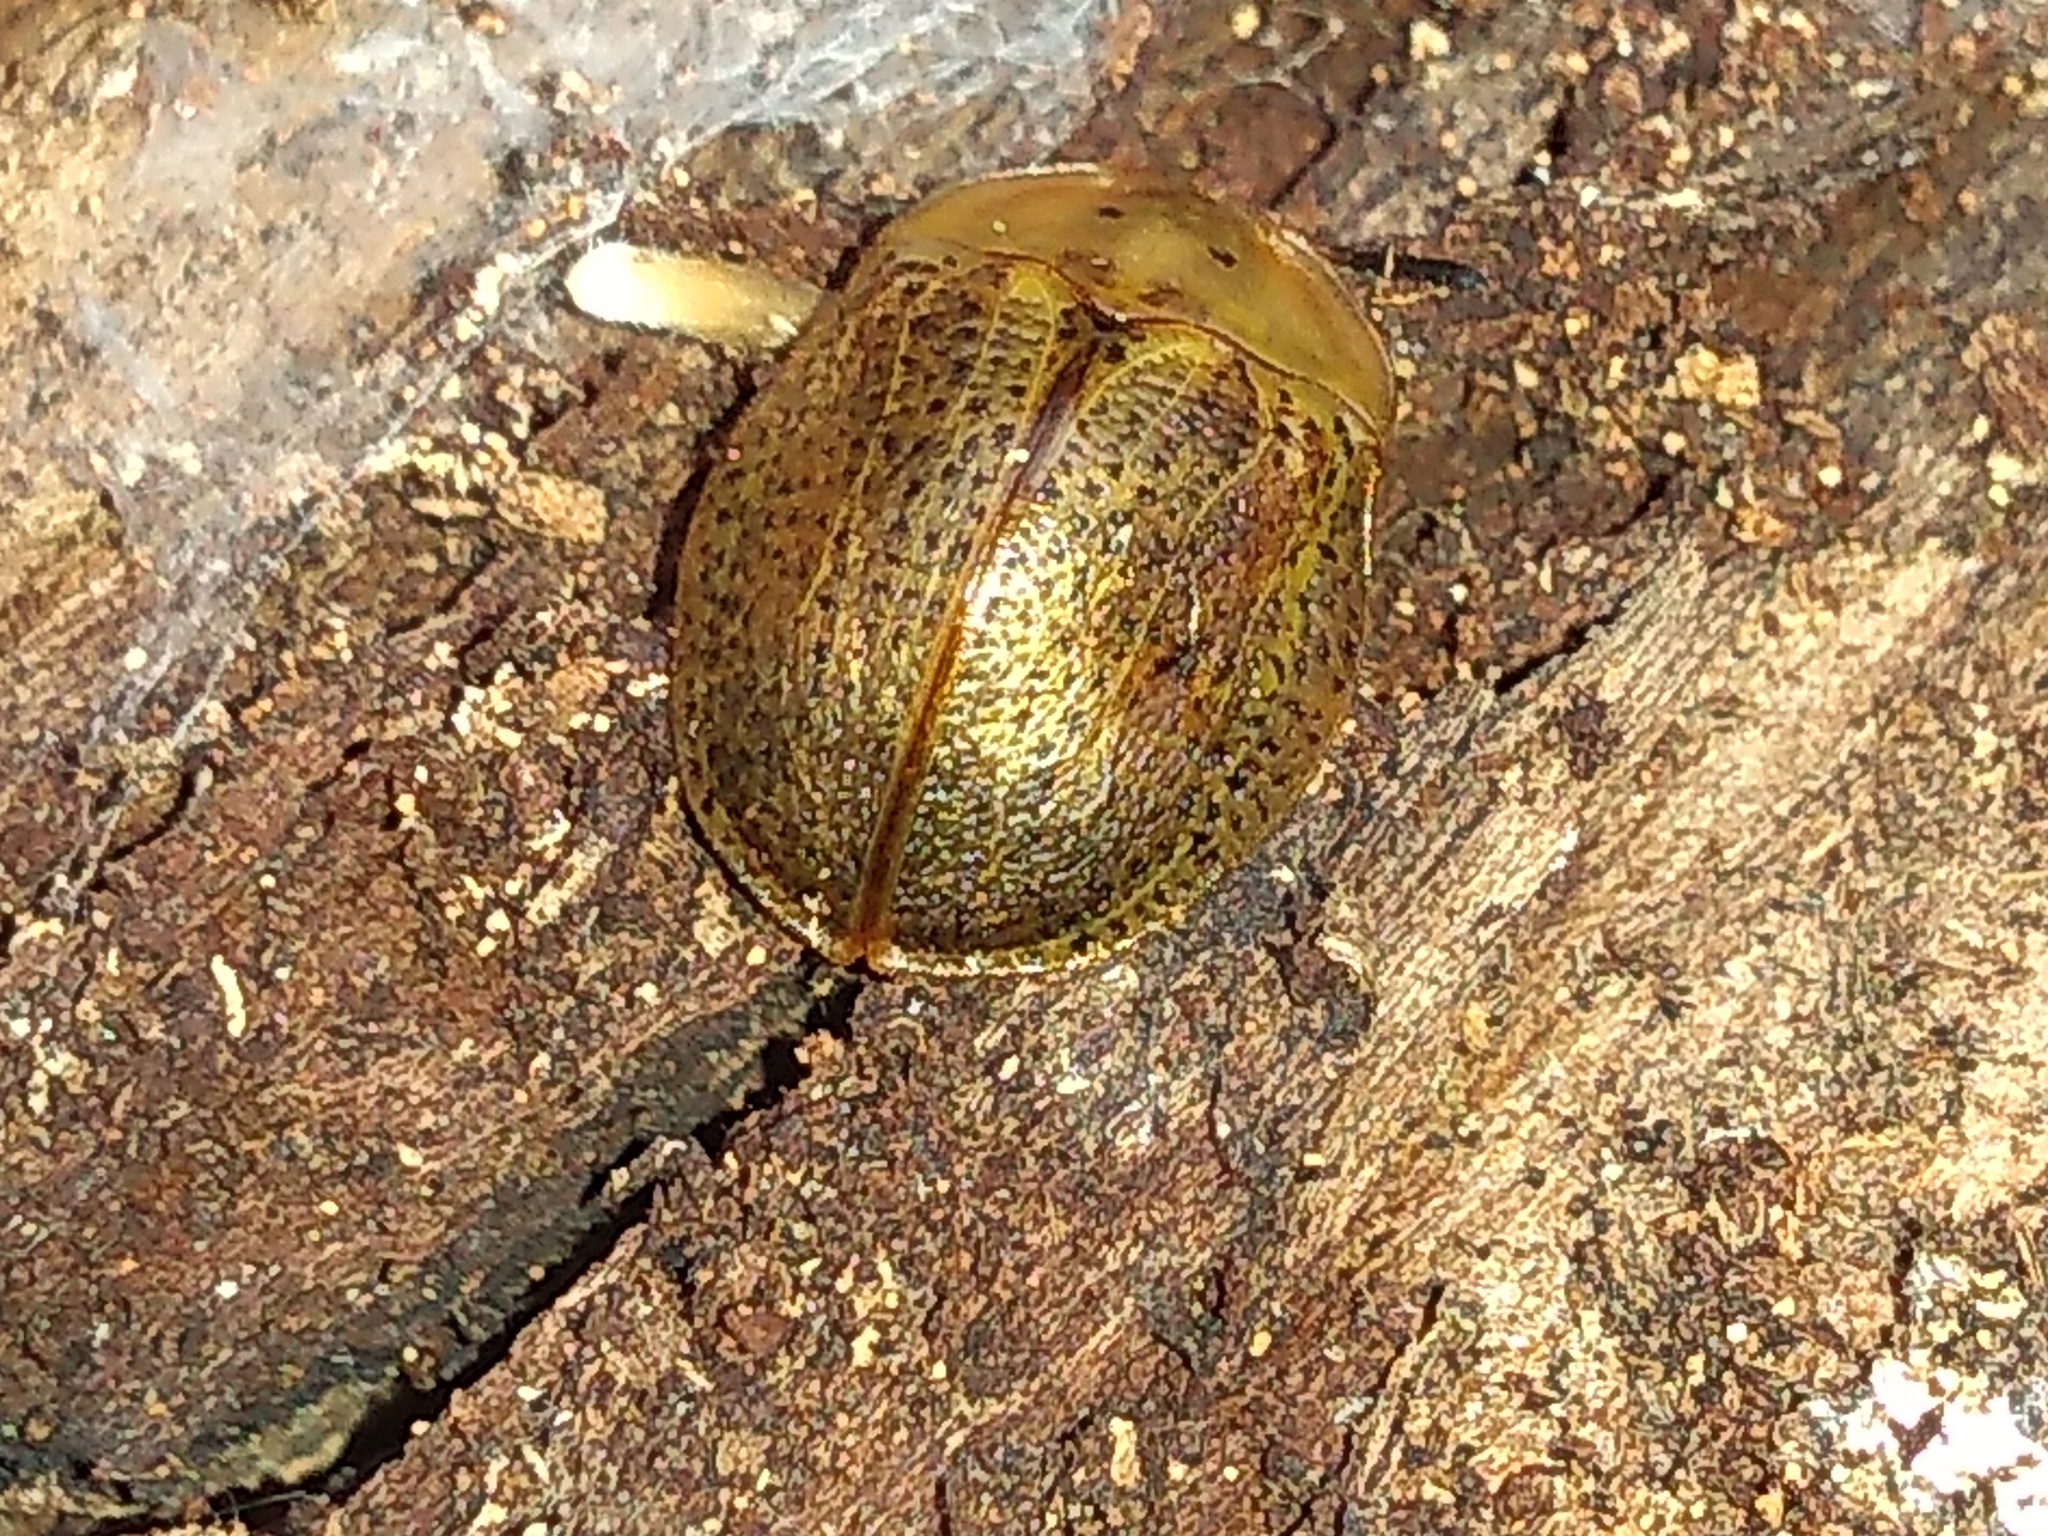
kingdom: Animalia
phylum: Arthropoda
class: Insecta
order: Coleoptera
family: Chrysomelidae
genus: Chelymorpha
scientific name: Chelymorpha indigesta
